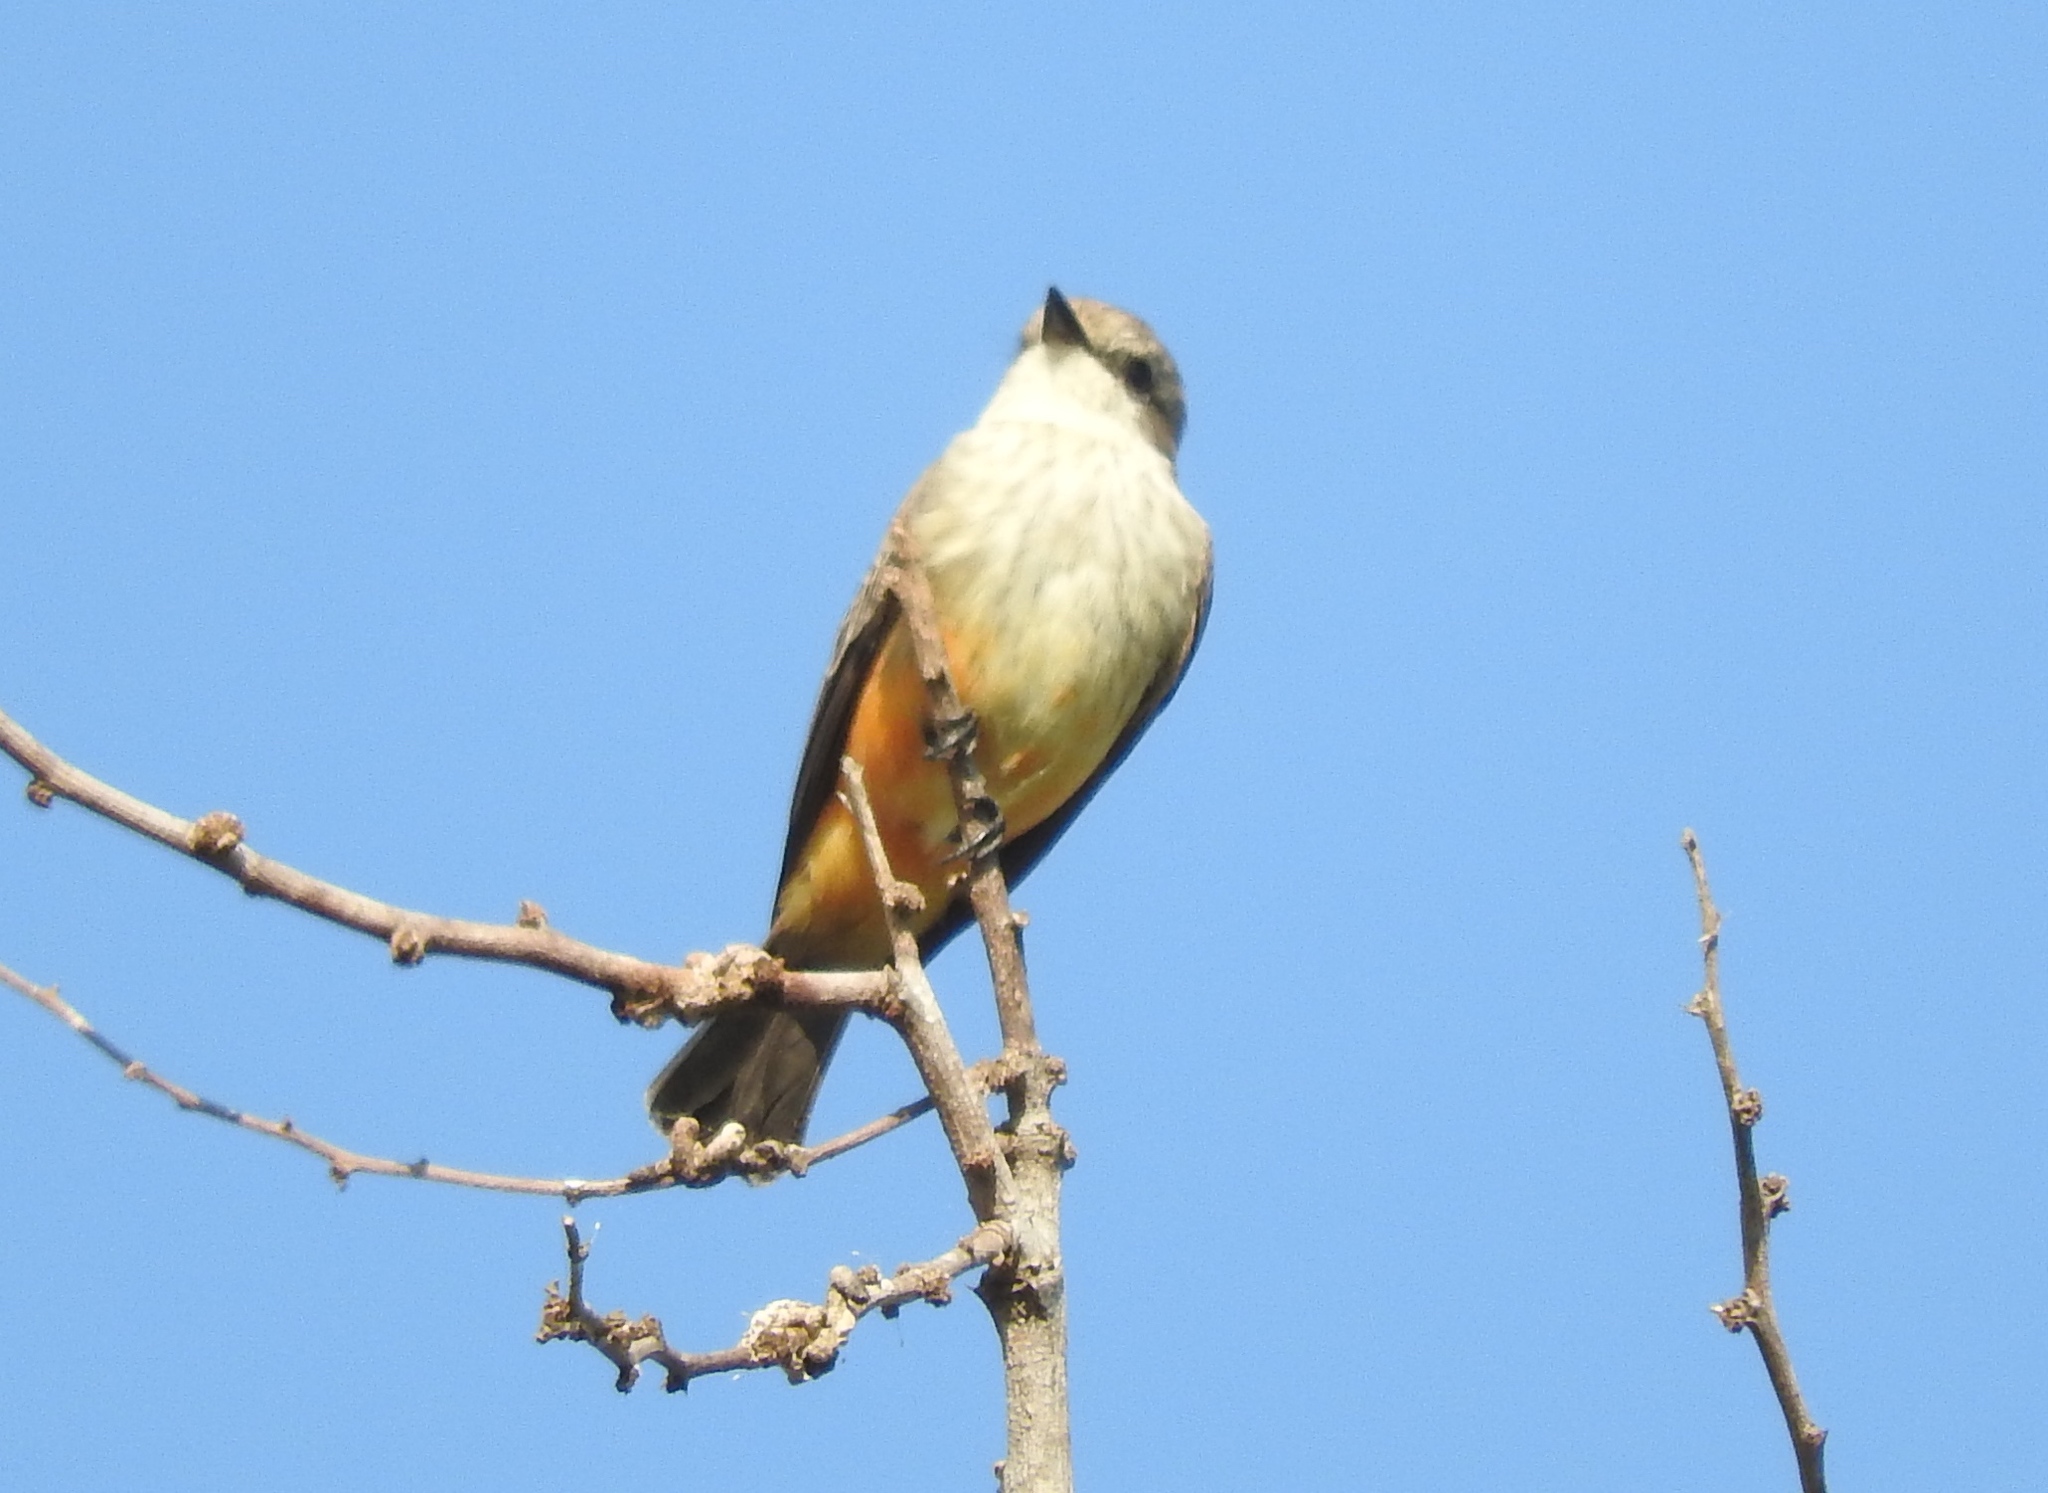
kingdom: Animalia
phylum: Chordata
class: Aves
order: Passeriformes
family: Tyrannidae
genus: Pyrocephalus
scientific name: Pyrocephalus rubinus
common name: Vermilion flycatcher
